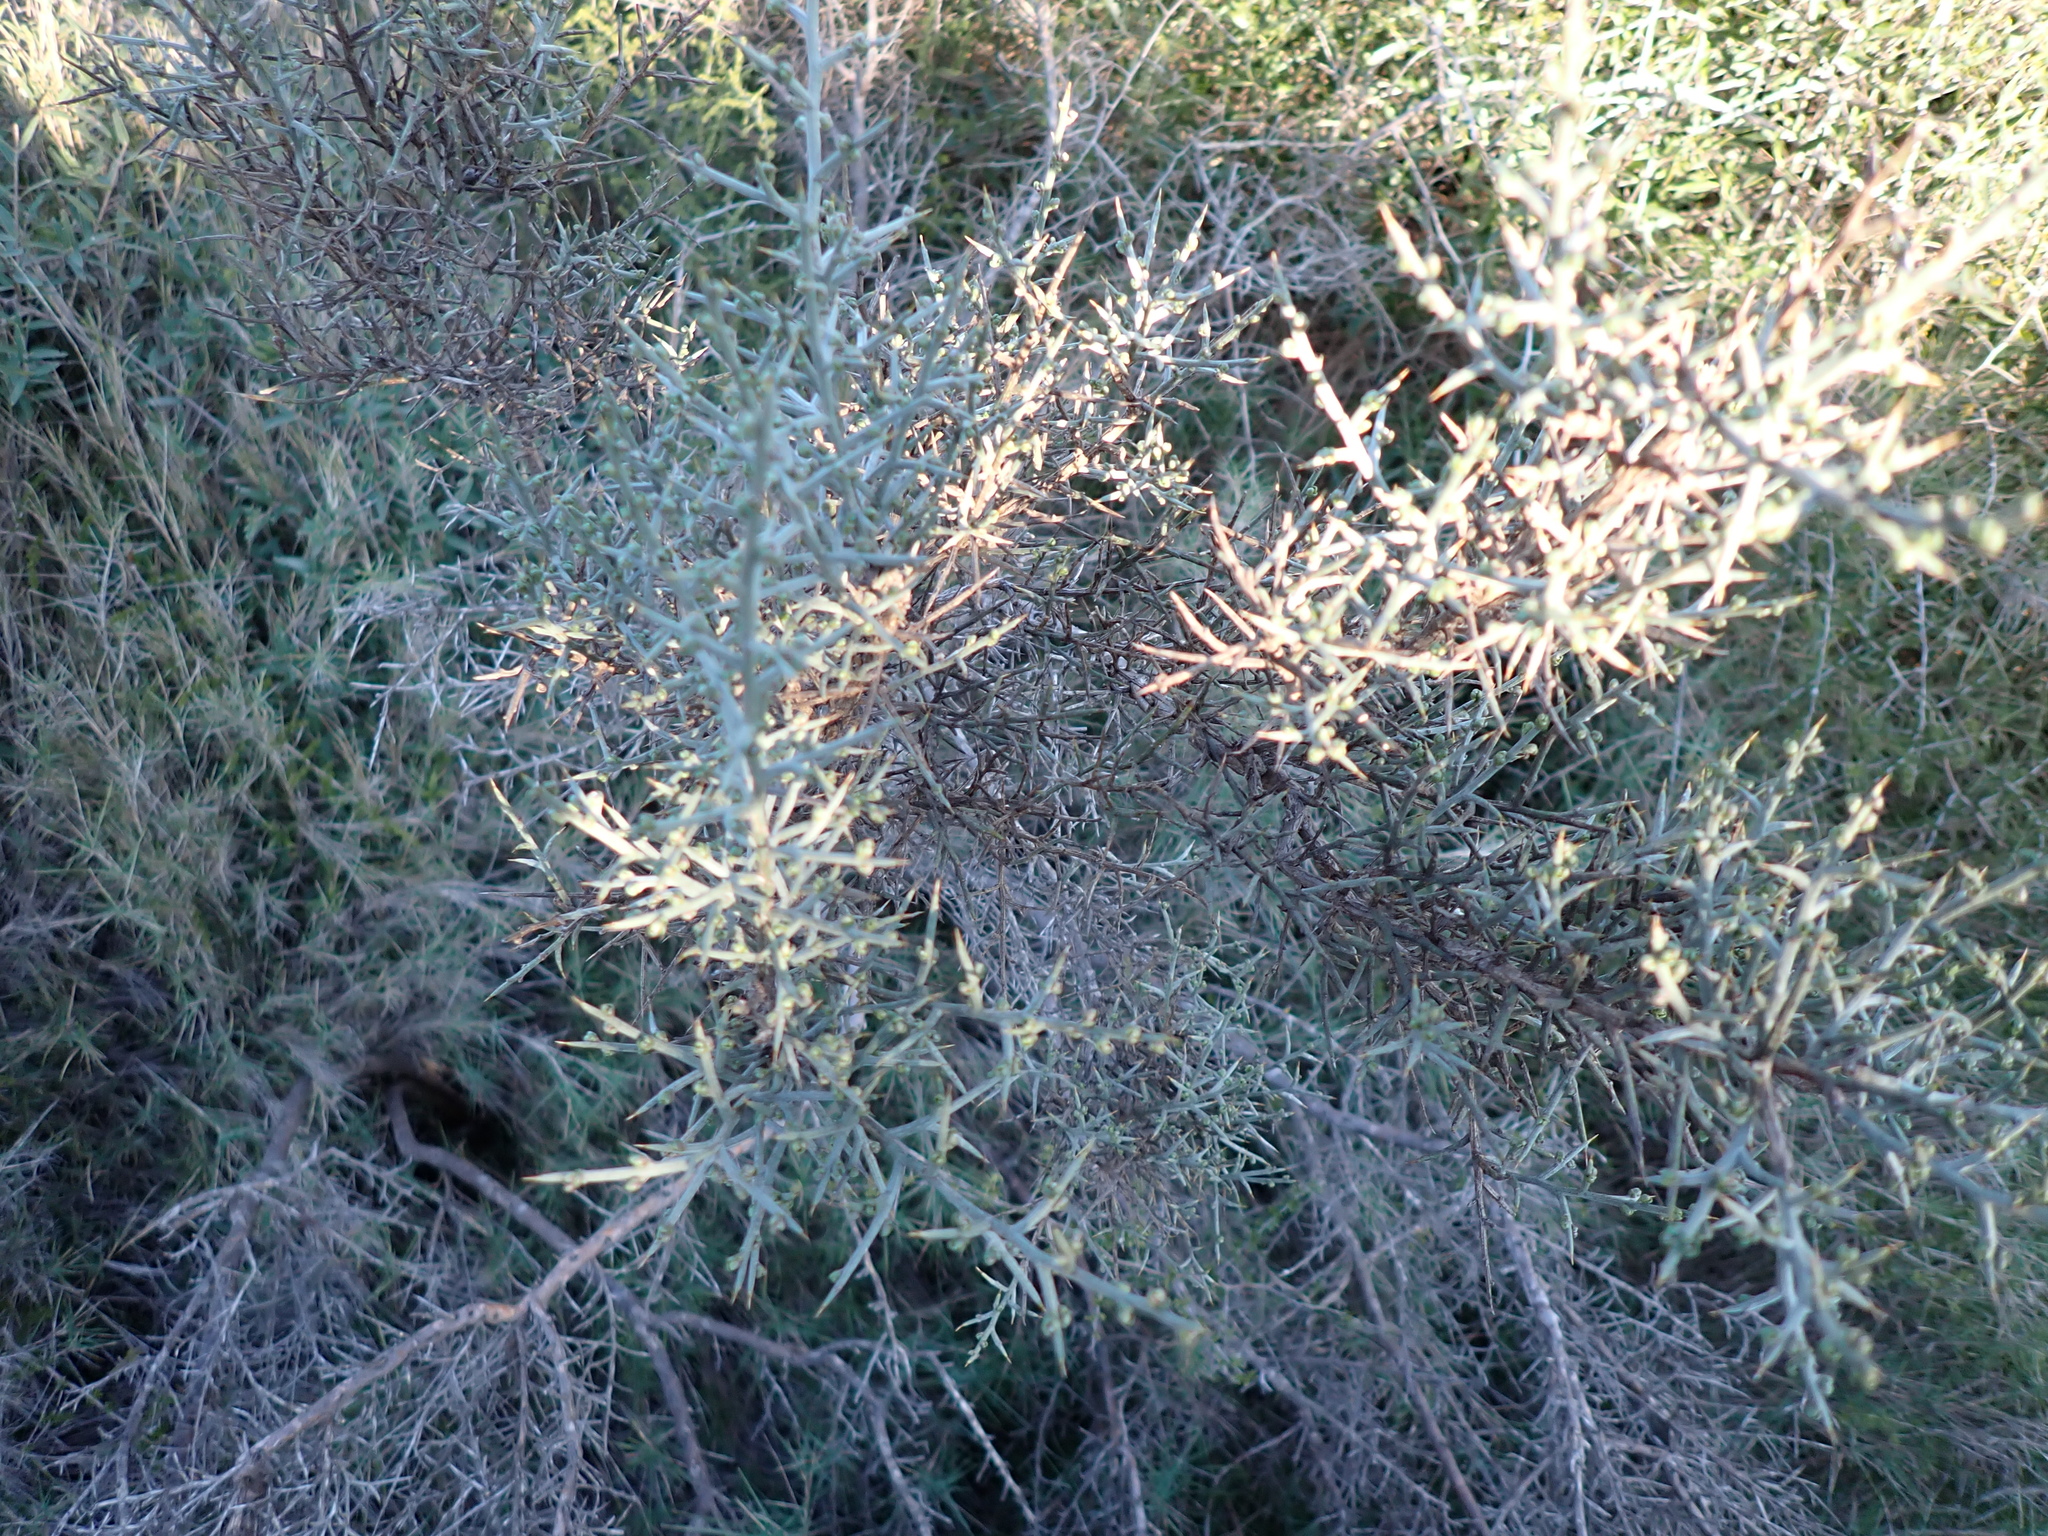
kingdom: Plantae
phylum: Tracheophyta
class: Magnoliopsida
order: Fabales
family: Fabaceae
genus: Genista
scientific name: Genista scorpius
